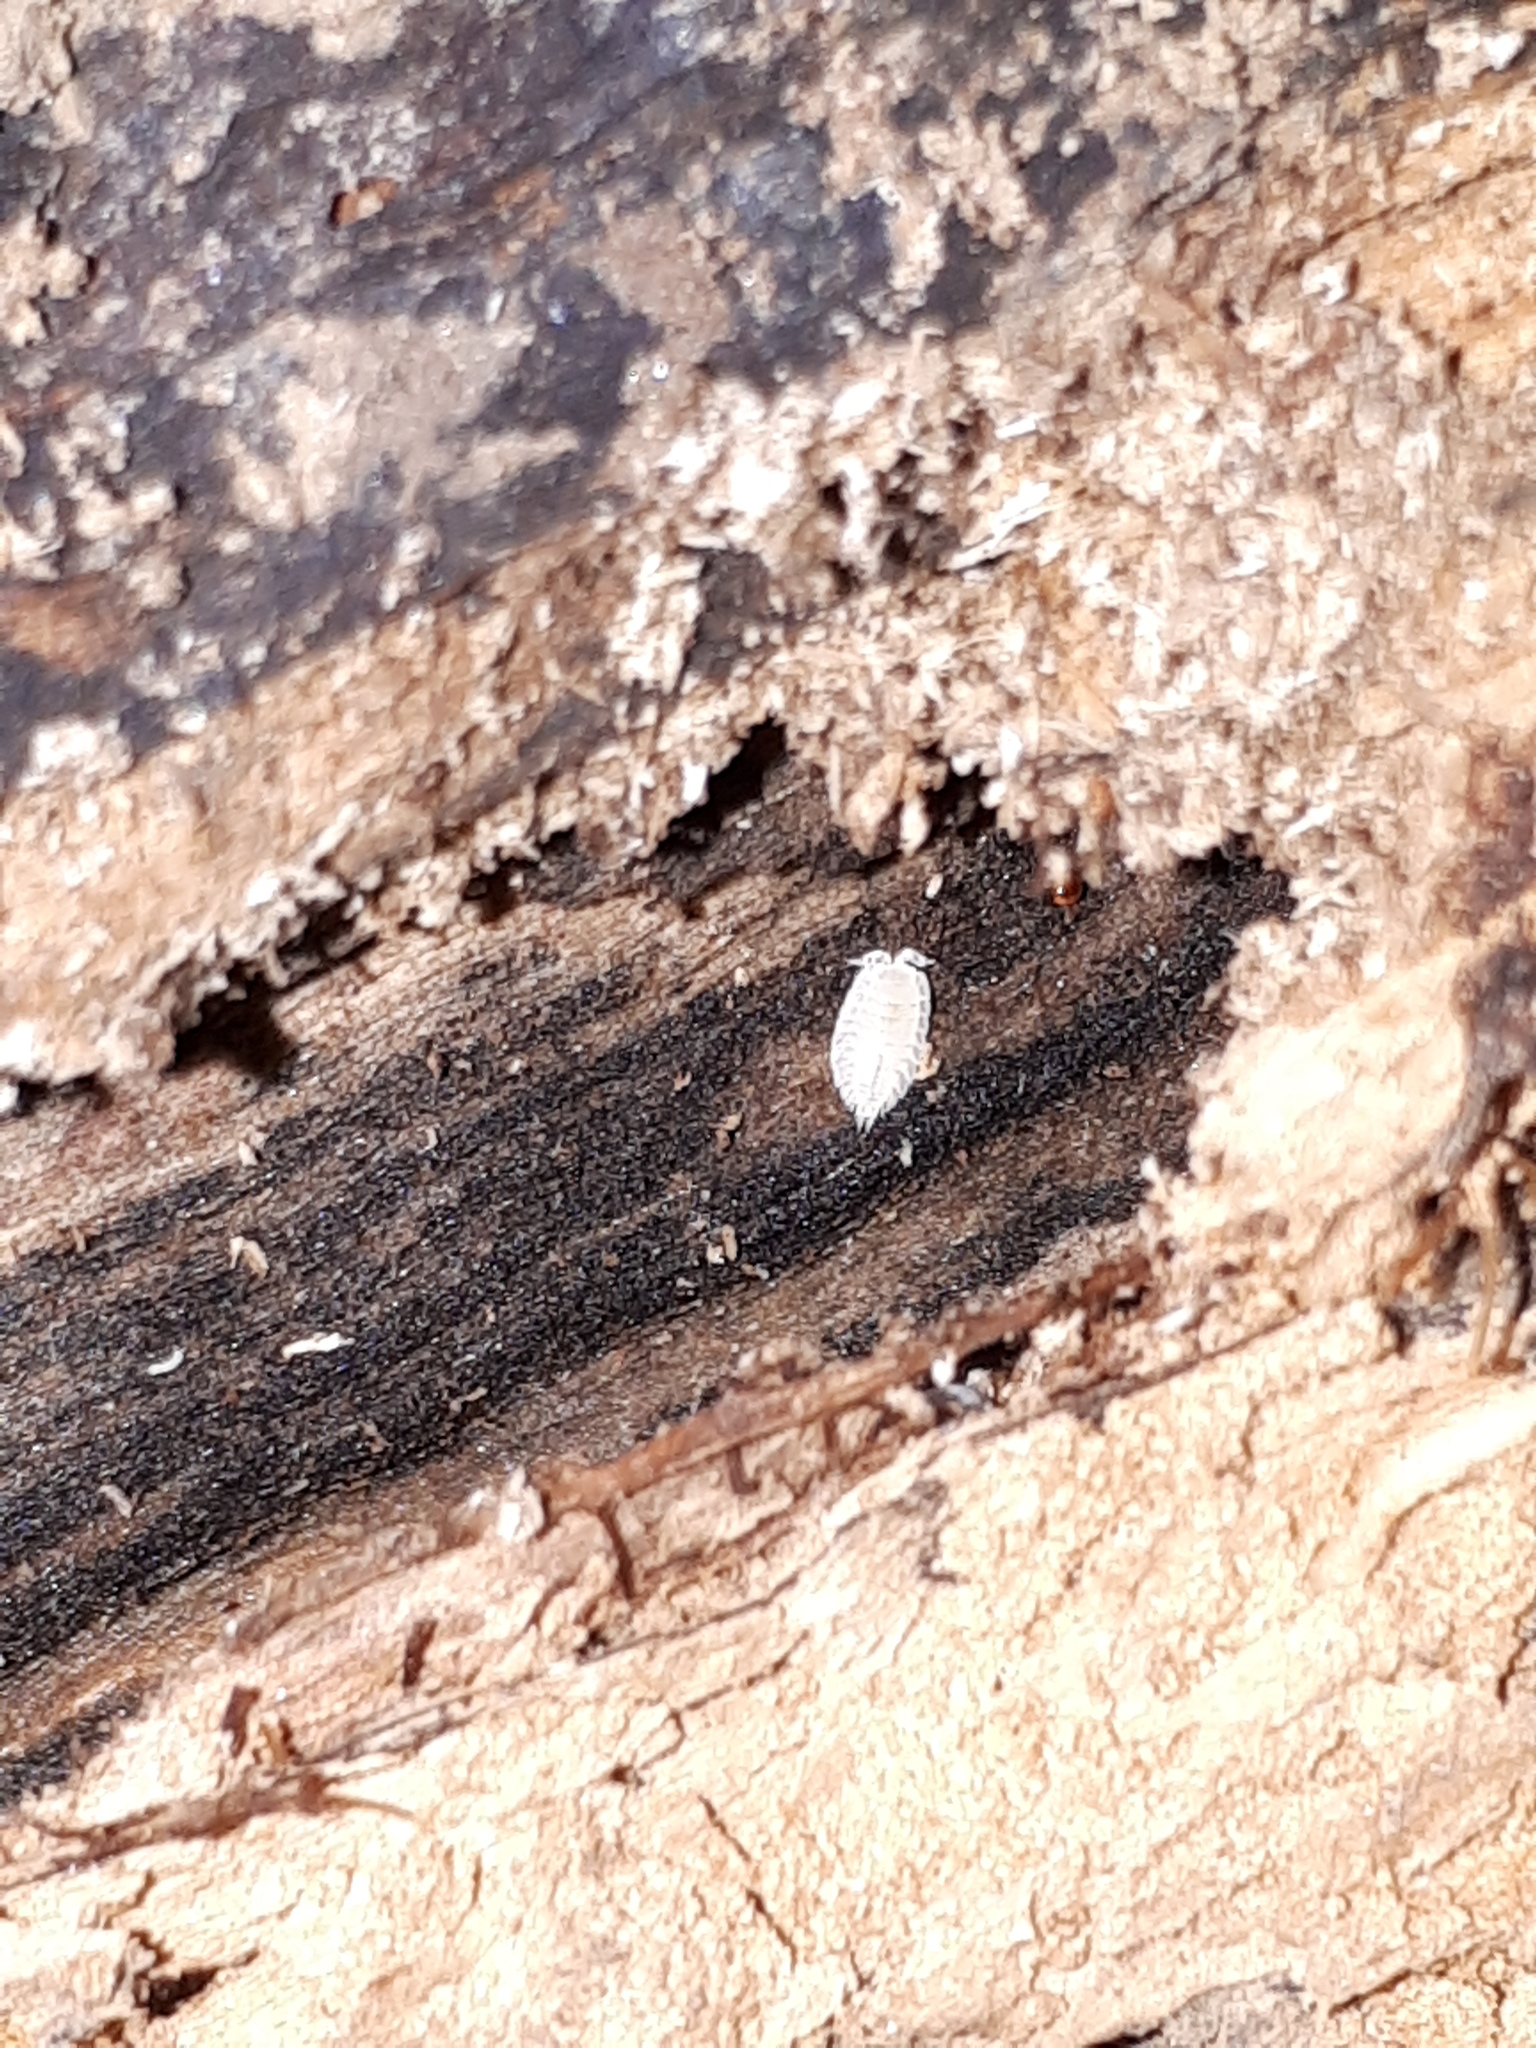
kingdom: Animalia
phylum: Arthropoda
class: Malacostraca
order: Isopoda
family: Platyarthridae
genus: Platyarthrus
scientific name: Platyarthrus hoffmannseggii
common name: Ant woodlouse
